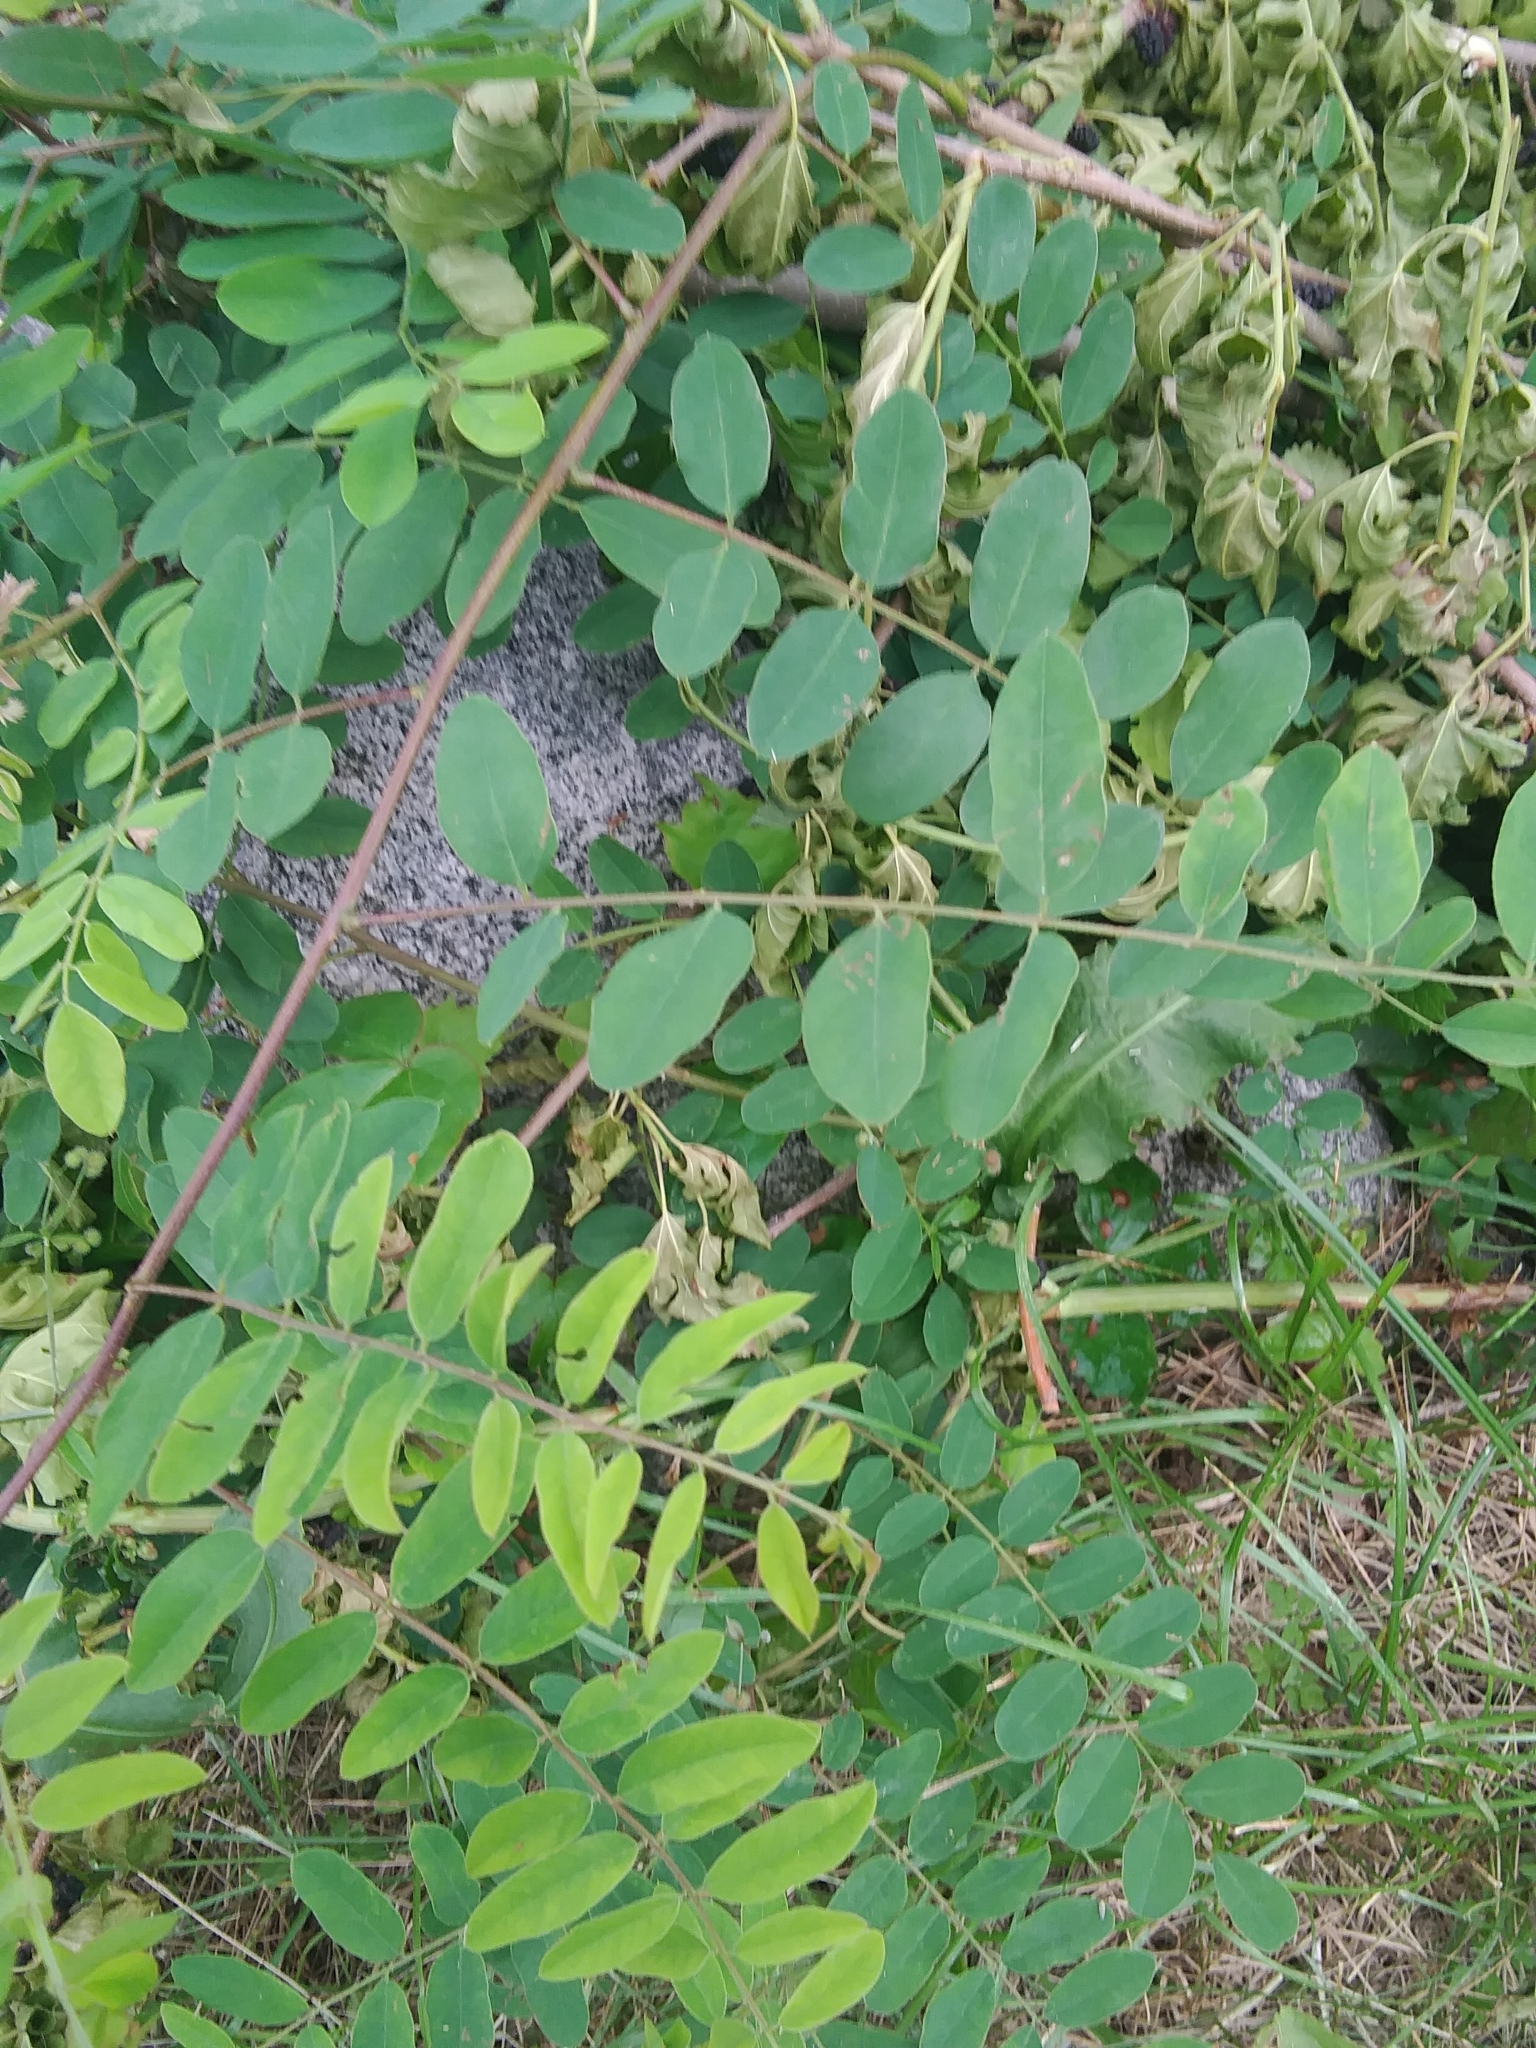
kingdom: Plantae
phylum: Tracheophyta
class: Magnoliopsida
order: Fabales
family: Fabaceae
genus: Amorpha
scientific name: Amorpha fruticosa
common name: False indigo
